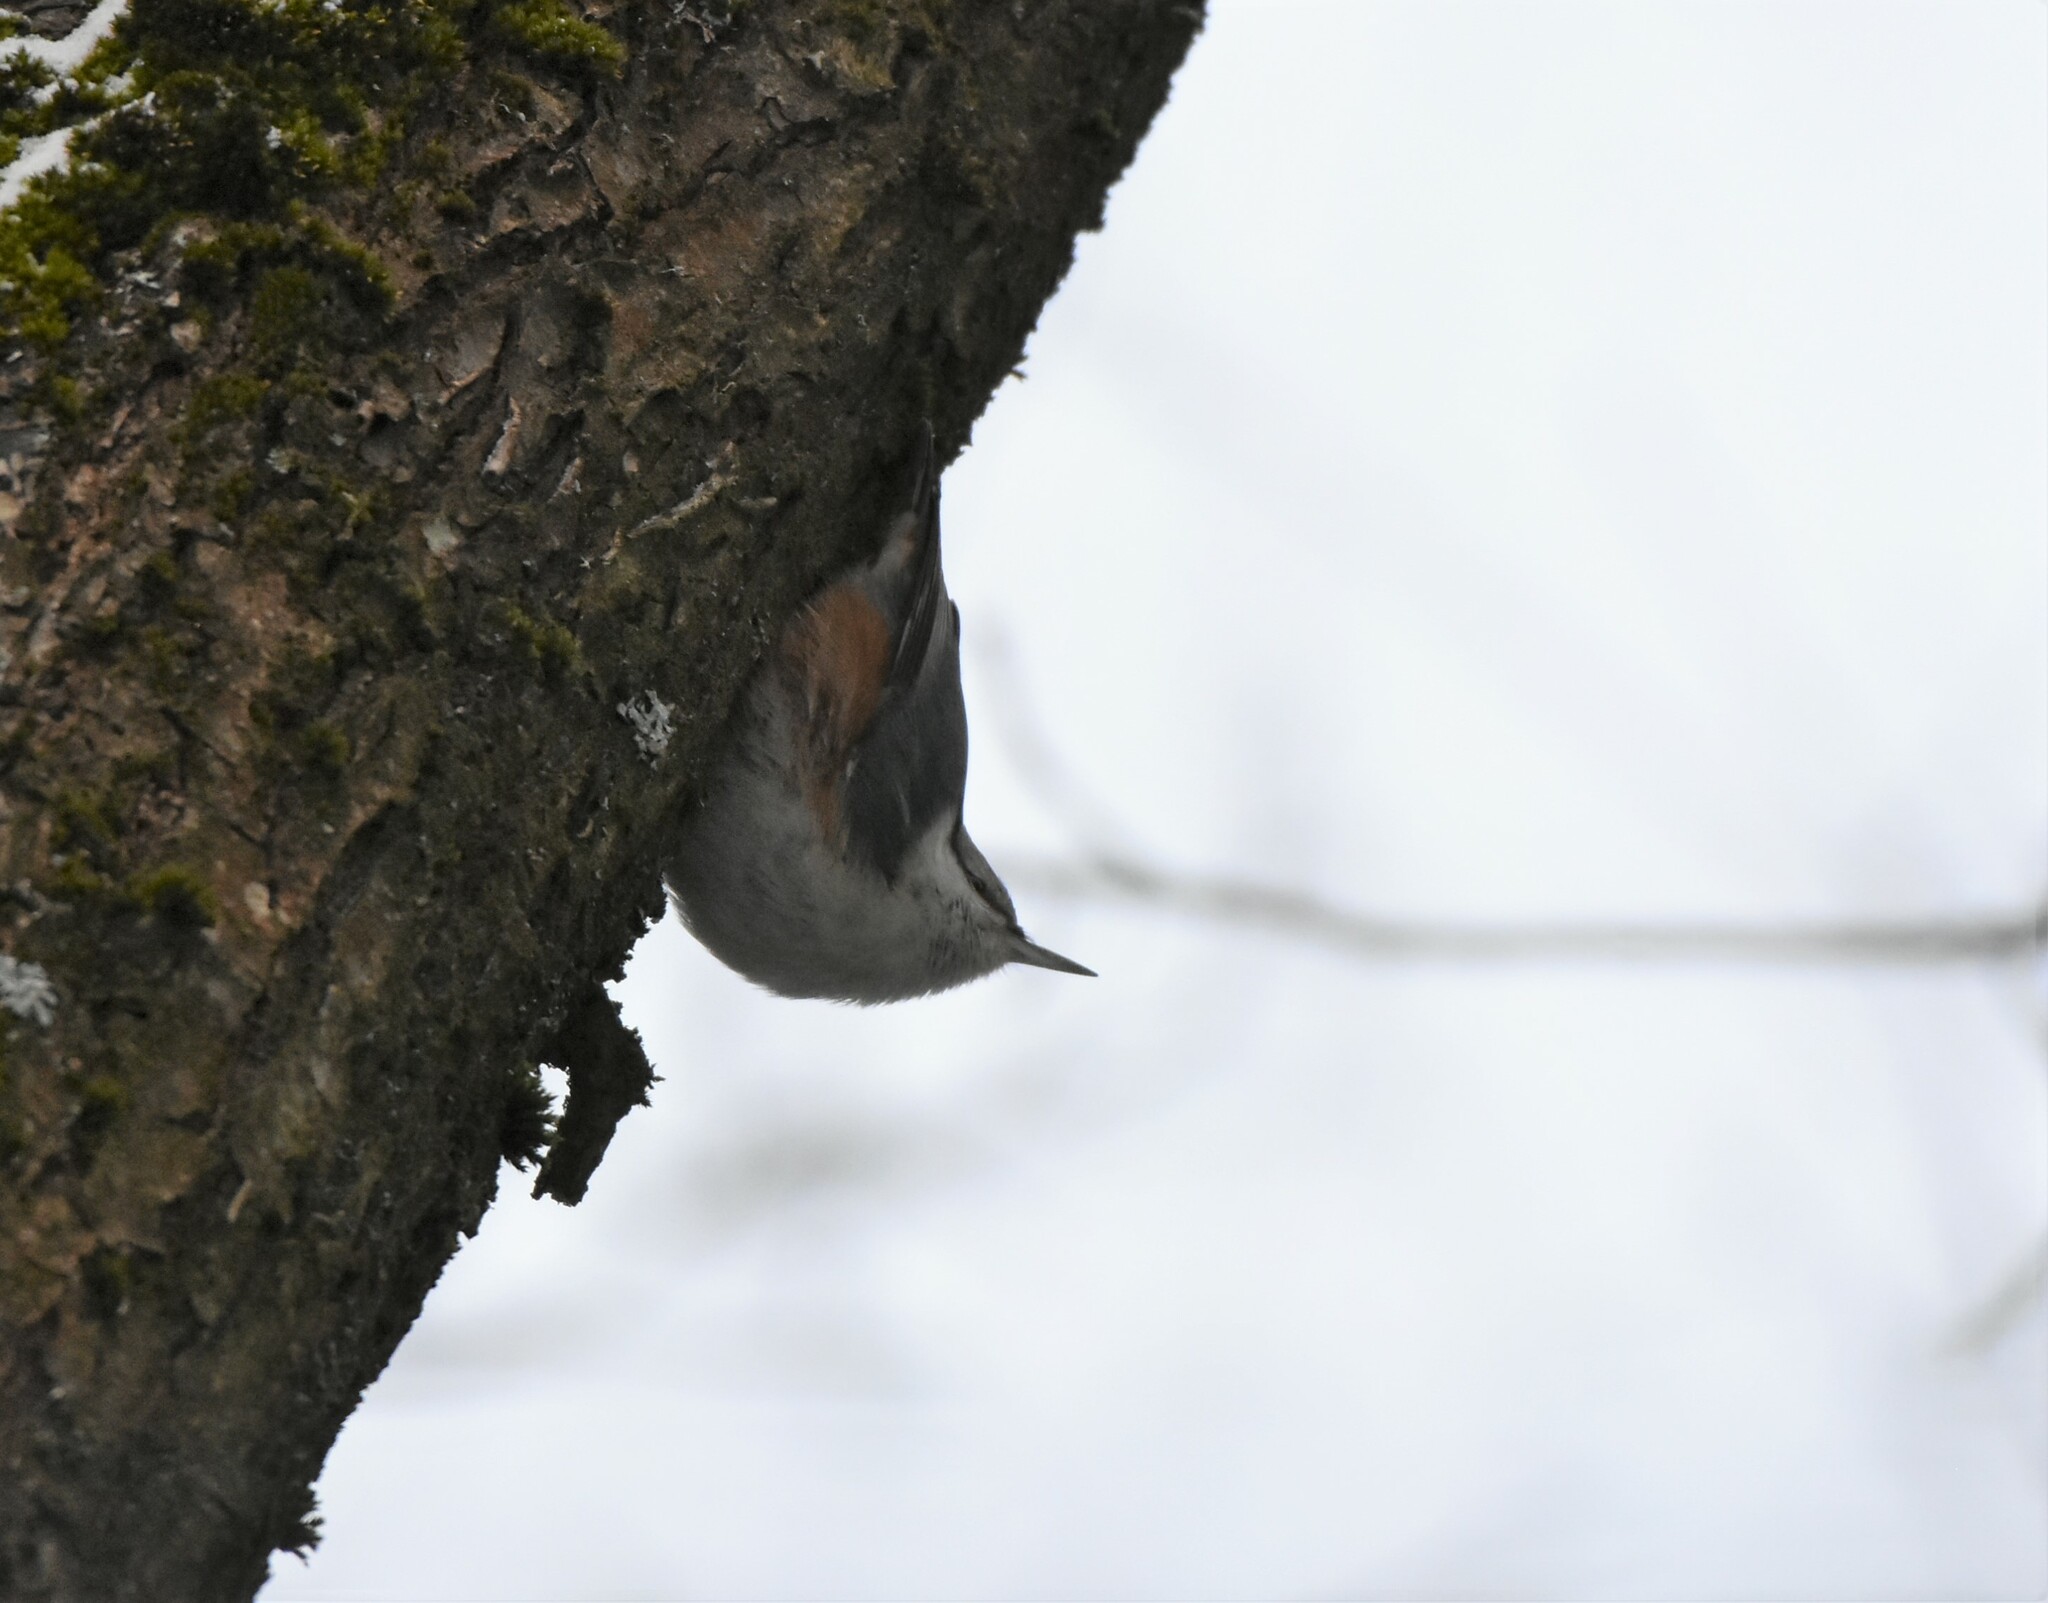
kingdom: Animalia
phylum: Chordata
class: Aves
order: Passeriformes
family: Sittidae
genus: Sitta
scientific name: Sitta europaea
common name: Eurasian nuthatch
